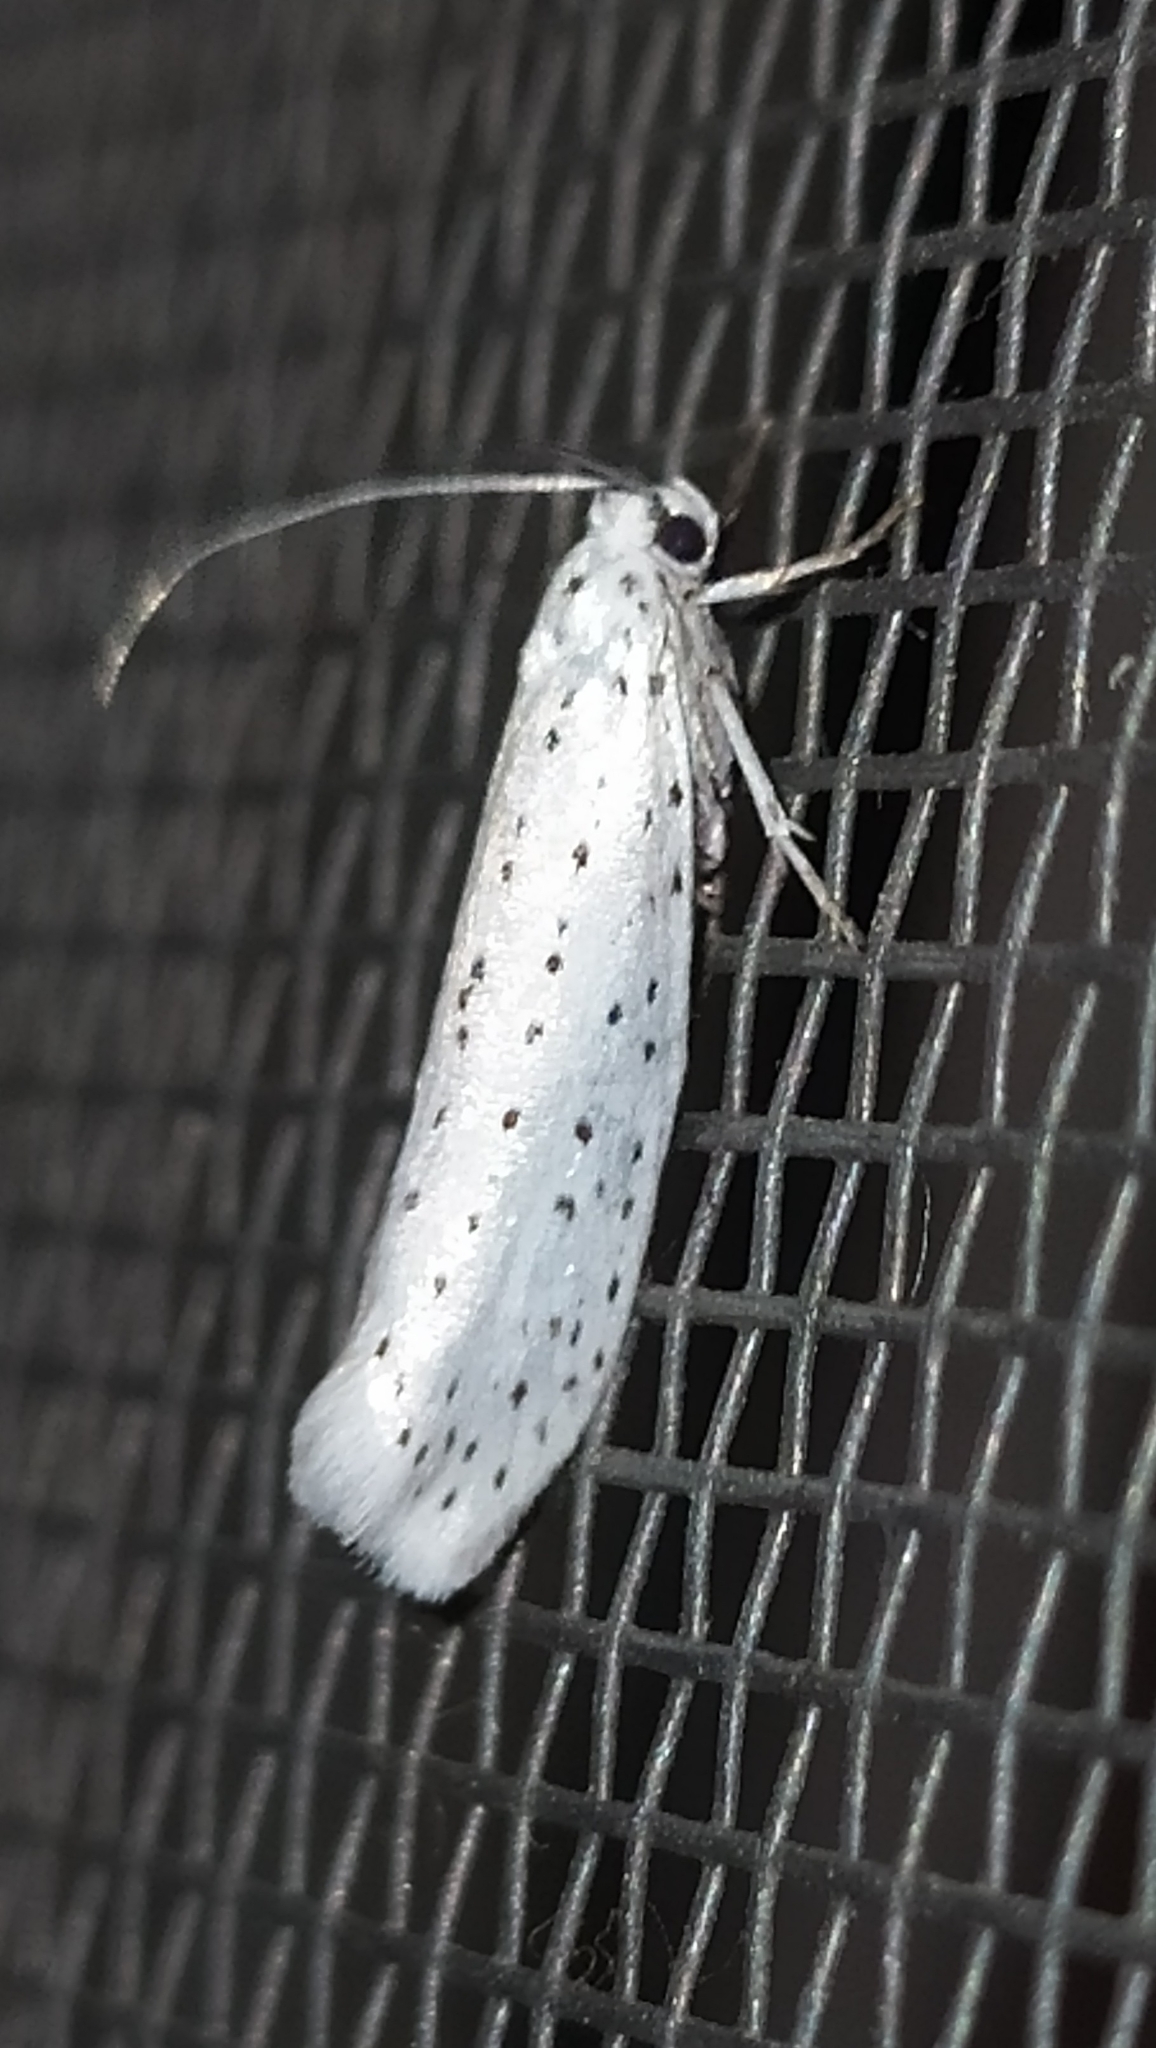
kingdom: Animalia
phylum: Arthropoda
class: Insecta
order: Lepidoptera
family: Yponomeutidae
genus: Yponomeuta
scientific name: Yponomeuta evonymella
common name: Bird-cherry ermine
